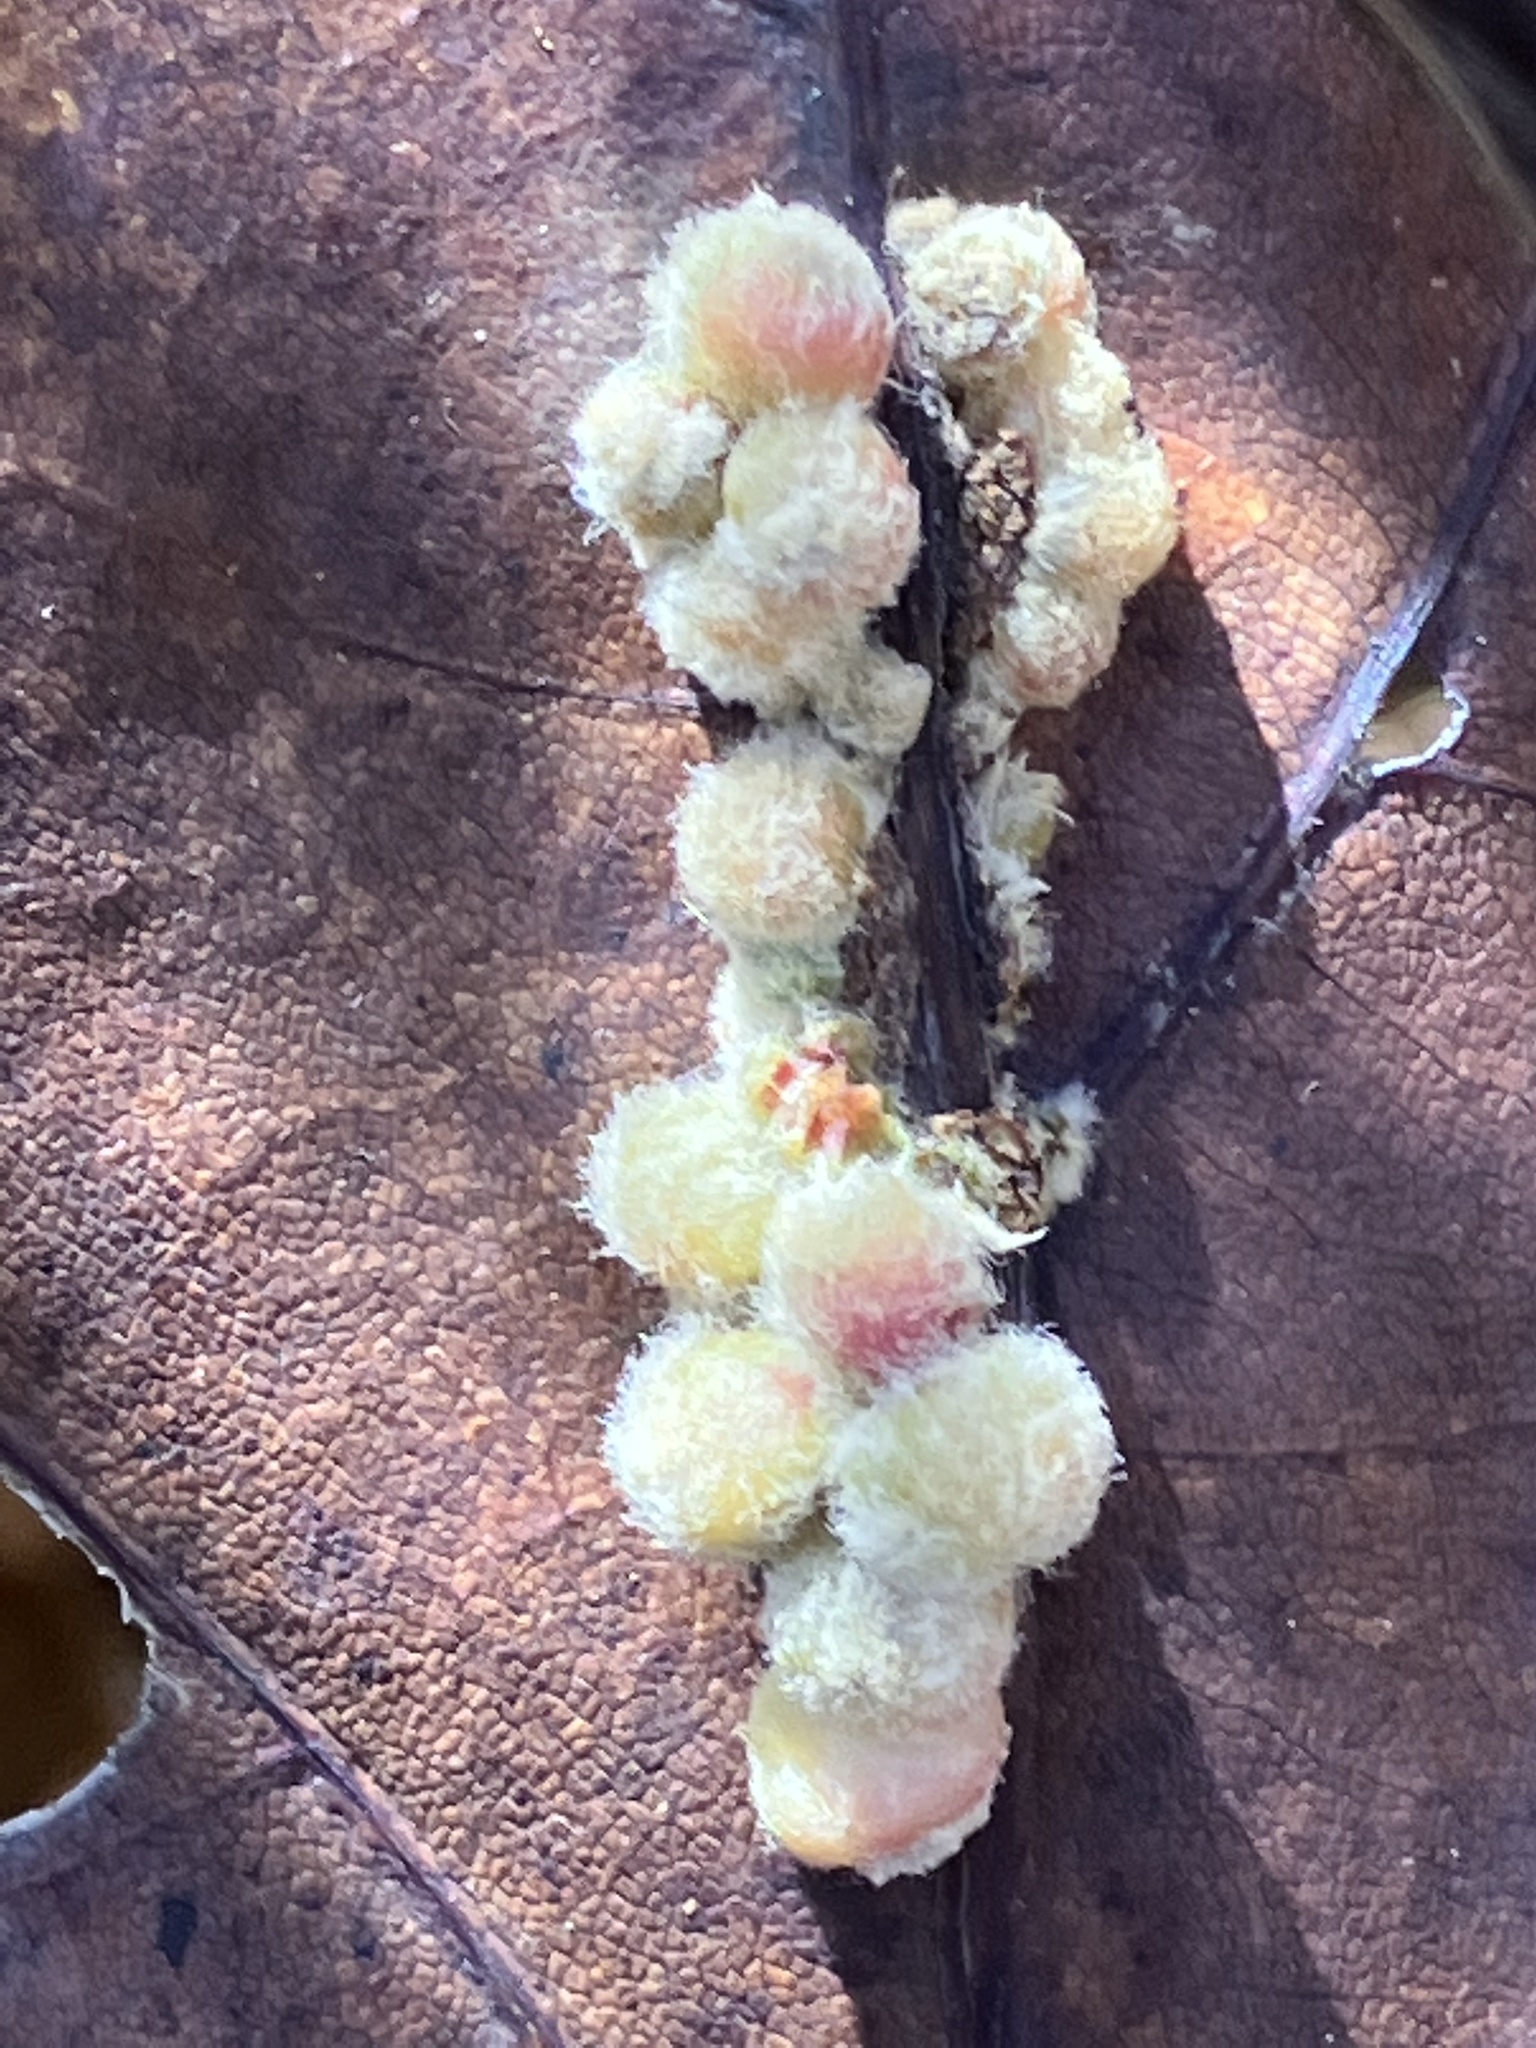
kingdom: Animalia
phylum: Arthropoda
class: Insecta
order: Hymenoptera
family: Cynipidae
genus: Callirhytis
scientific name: Callirhytis
